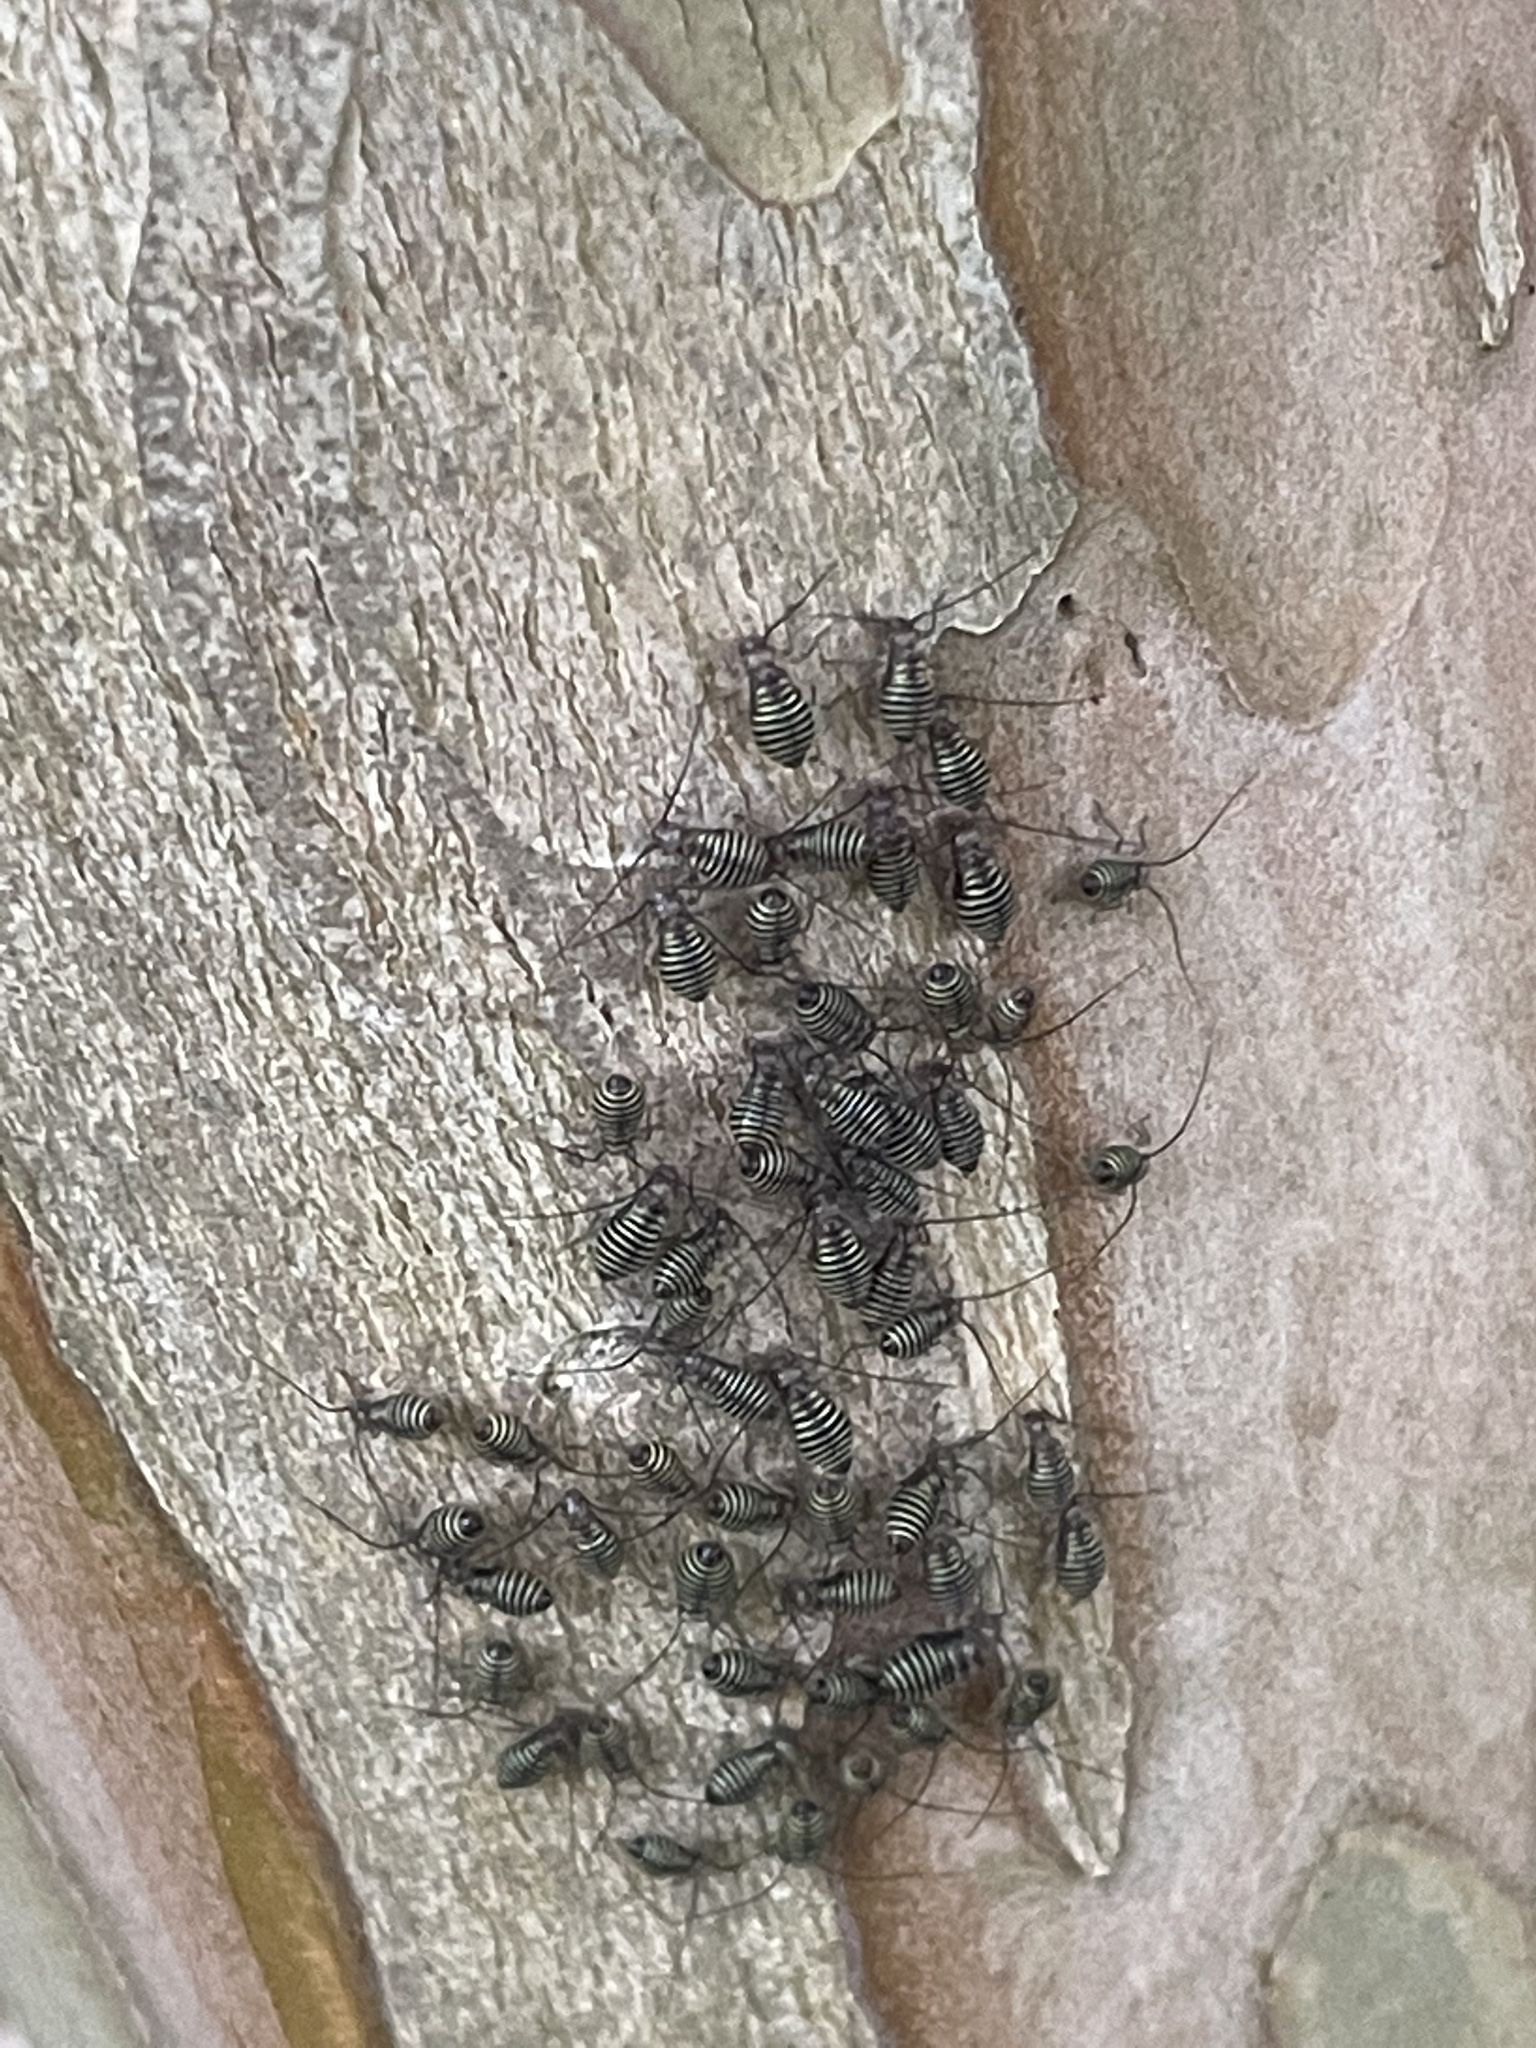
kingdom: Animalia
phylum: Arthropoda
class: Insecta
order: Psocodea
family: Psocidae
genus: Cerastipsocus
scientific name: Cerastipsocus venosus
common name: Tree cattle
